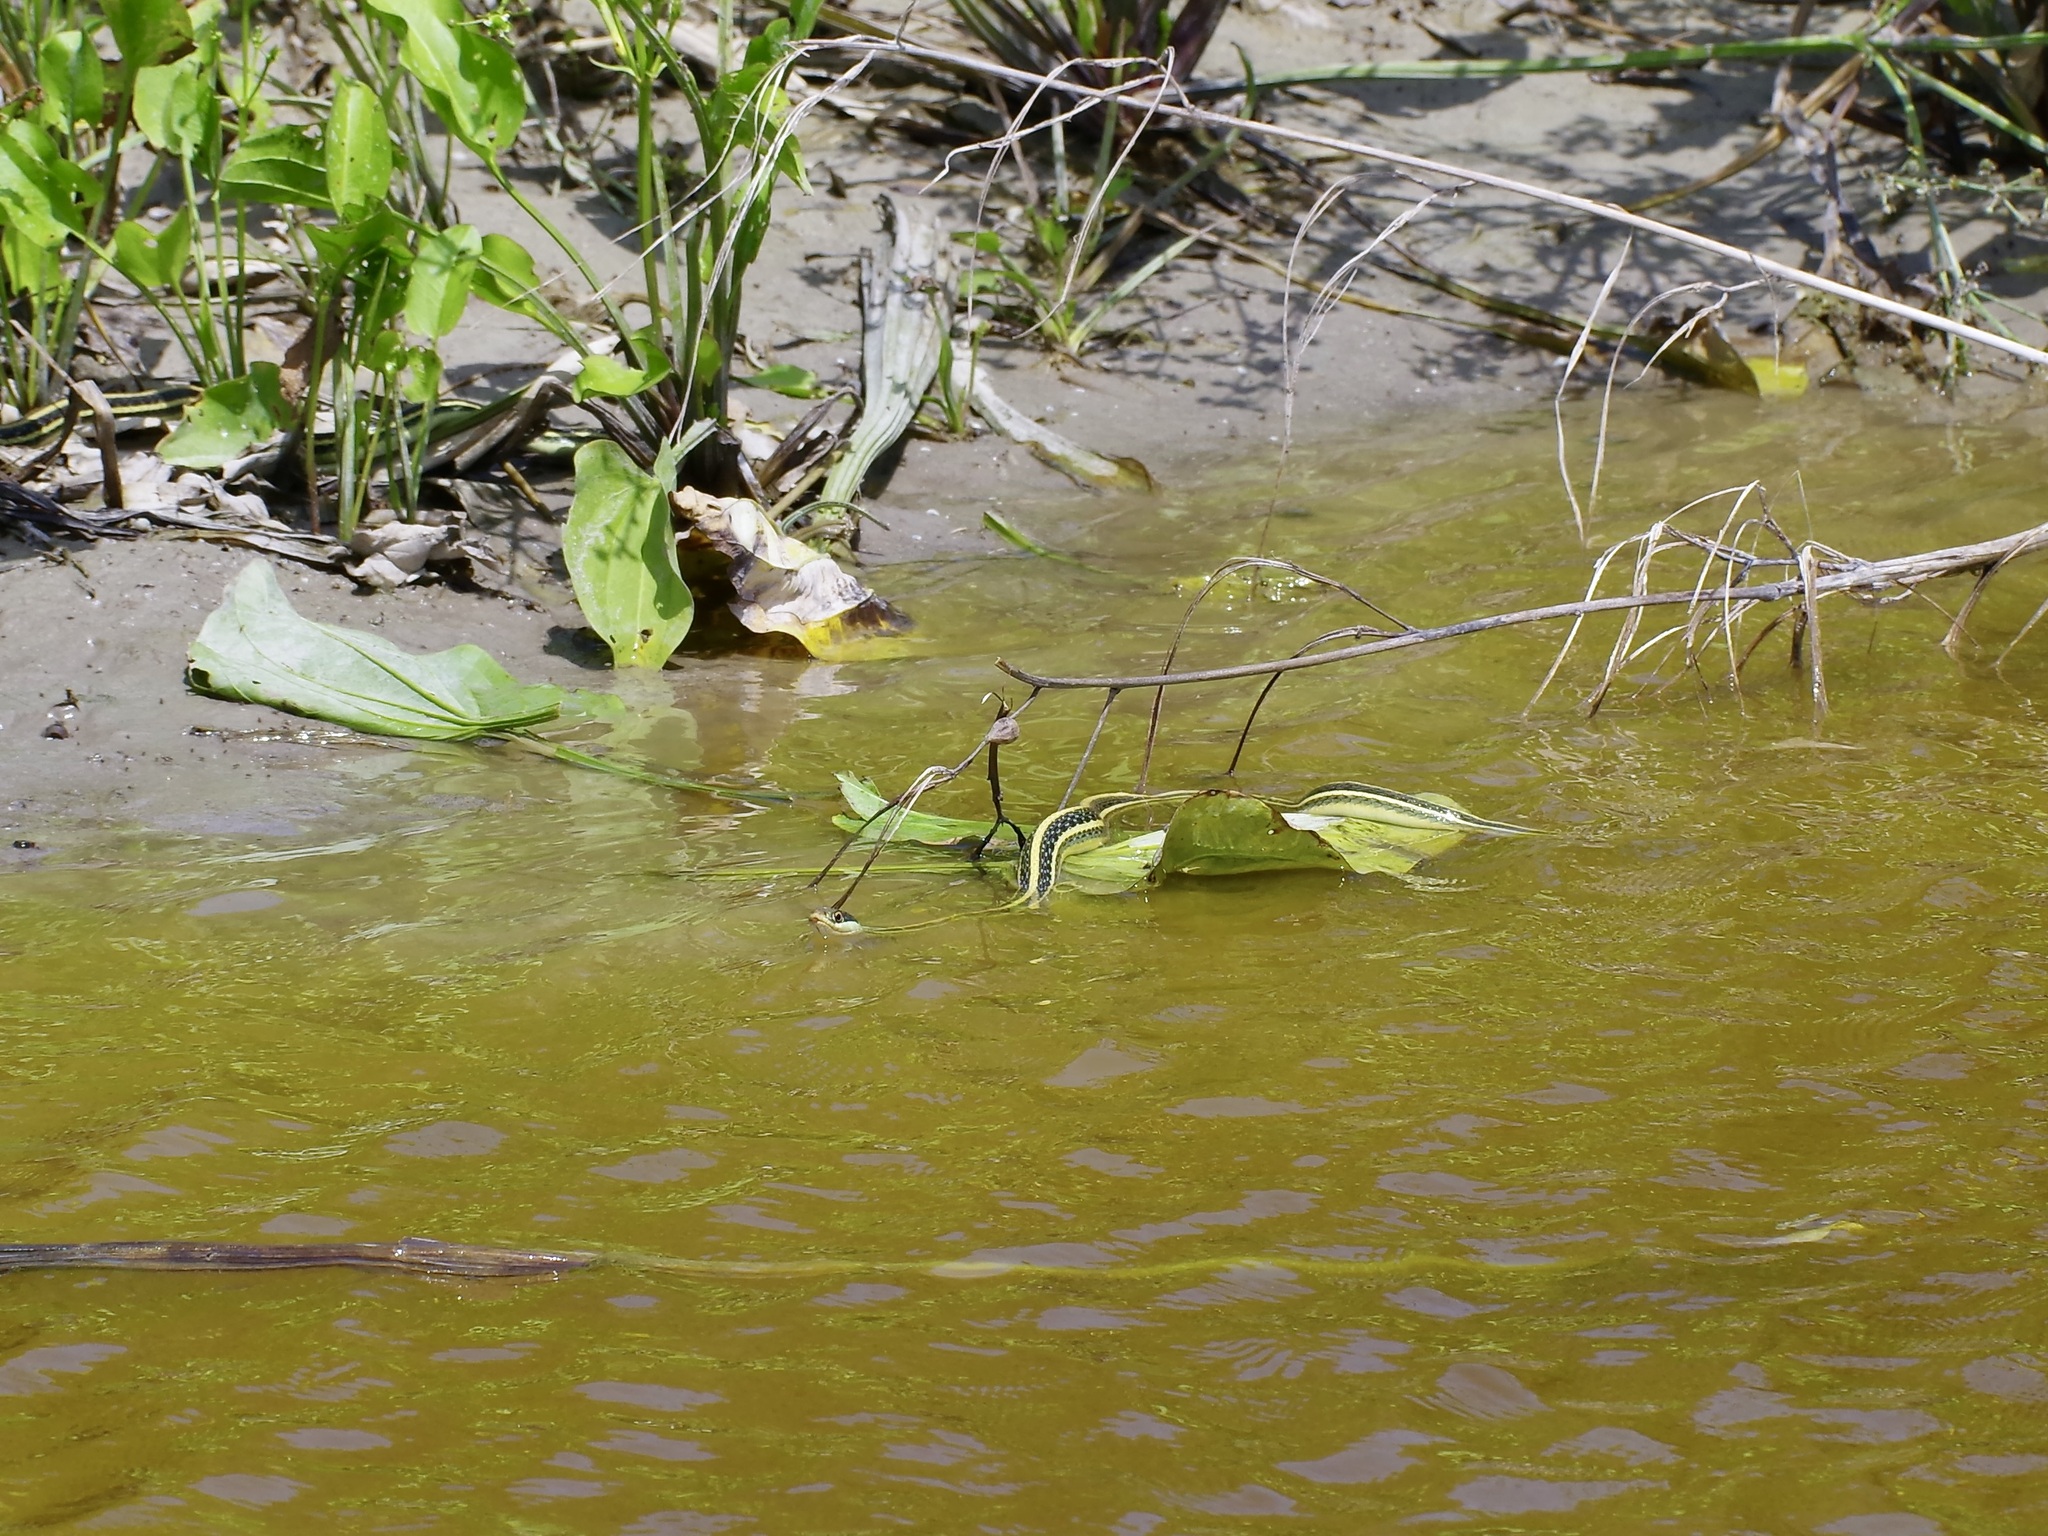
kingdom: Animalia
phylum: Chordata
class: Squamata
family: Colubridae
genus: Thamnophis
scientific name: Thamnophis proximus
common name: Western ribbon snake
